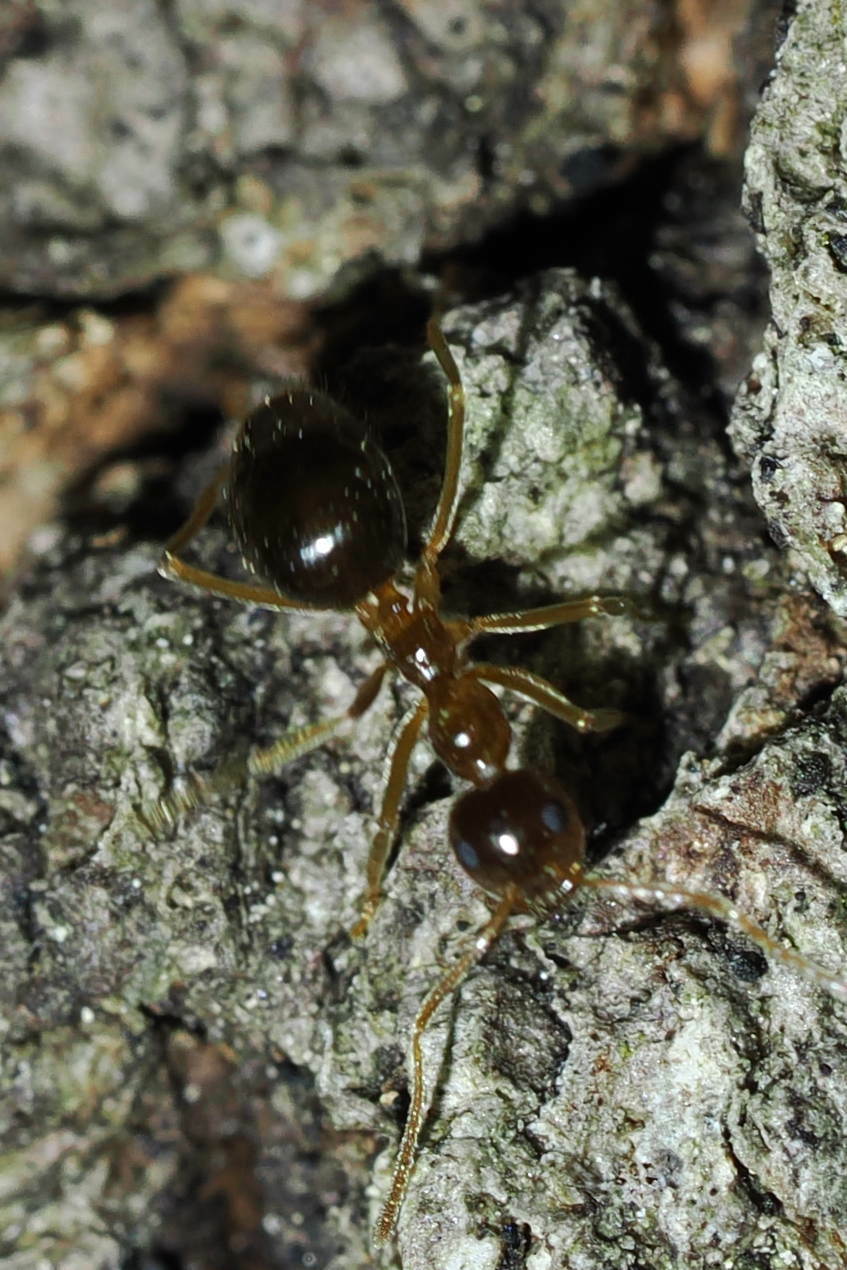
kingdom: Animalia
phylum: Arthropoda
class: Insecta
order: Hymenoptera
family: Formicidae
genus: Prenolepis
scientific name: Prenolepis imparis
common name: Small honey ant
